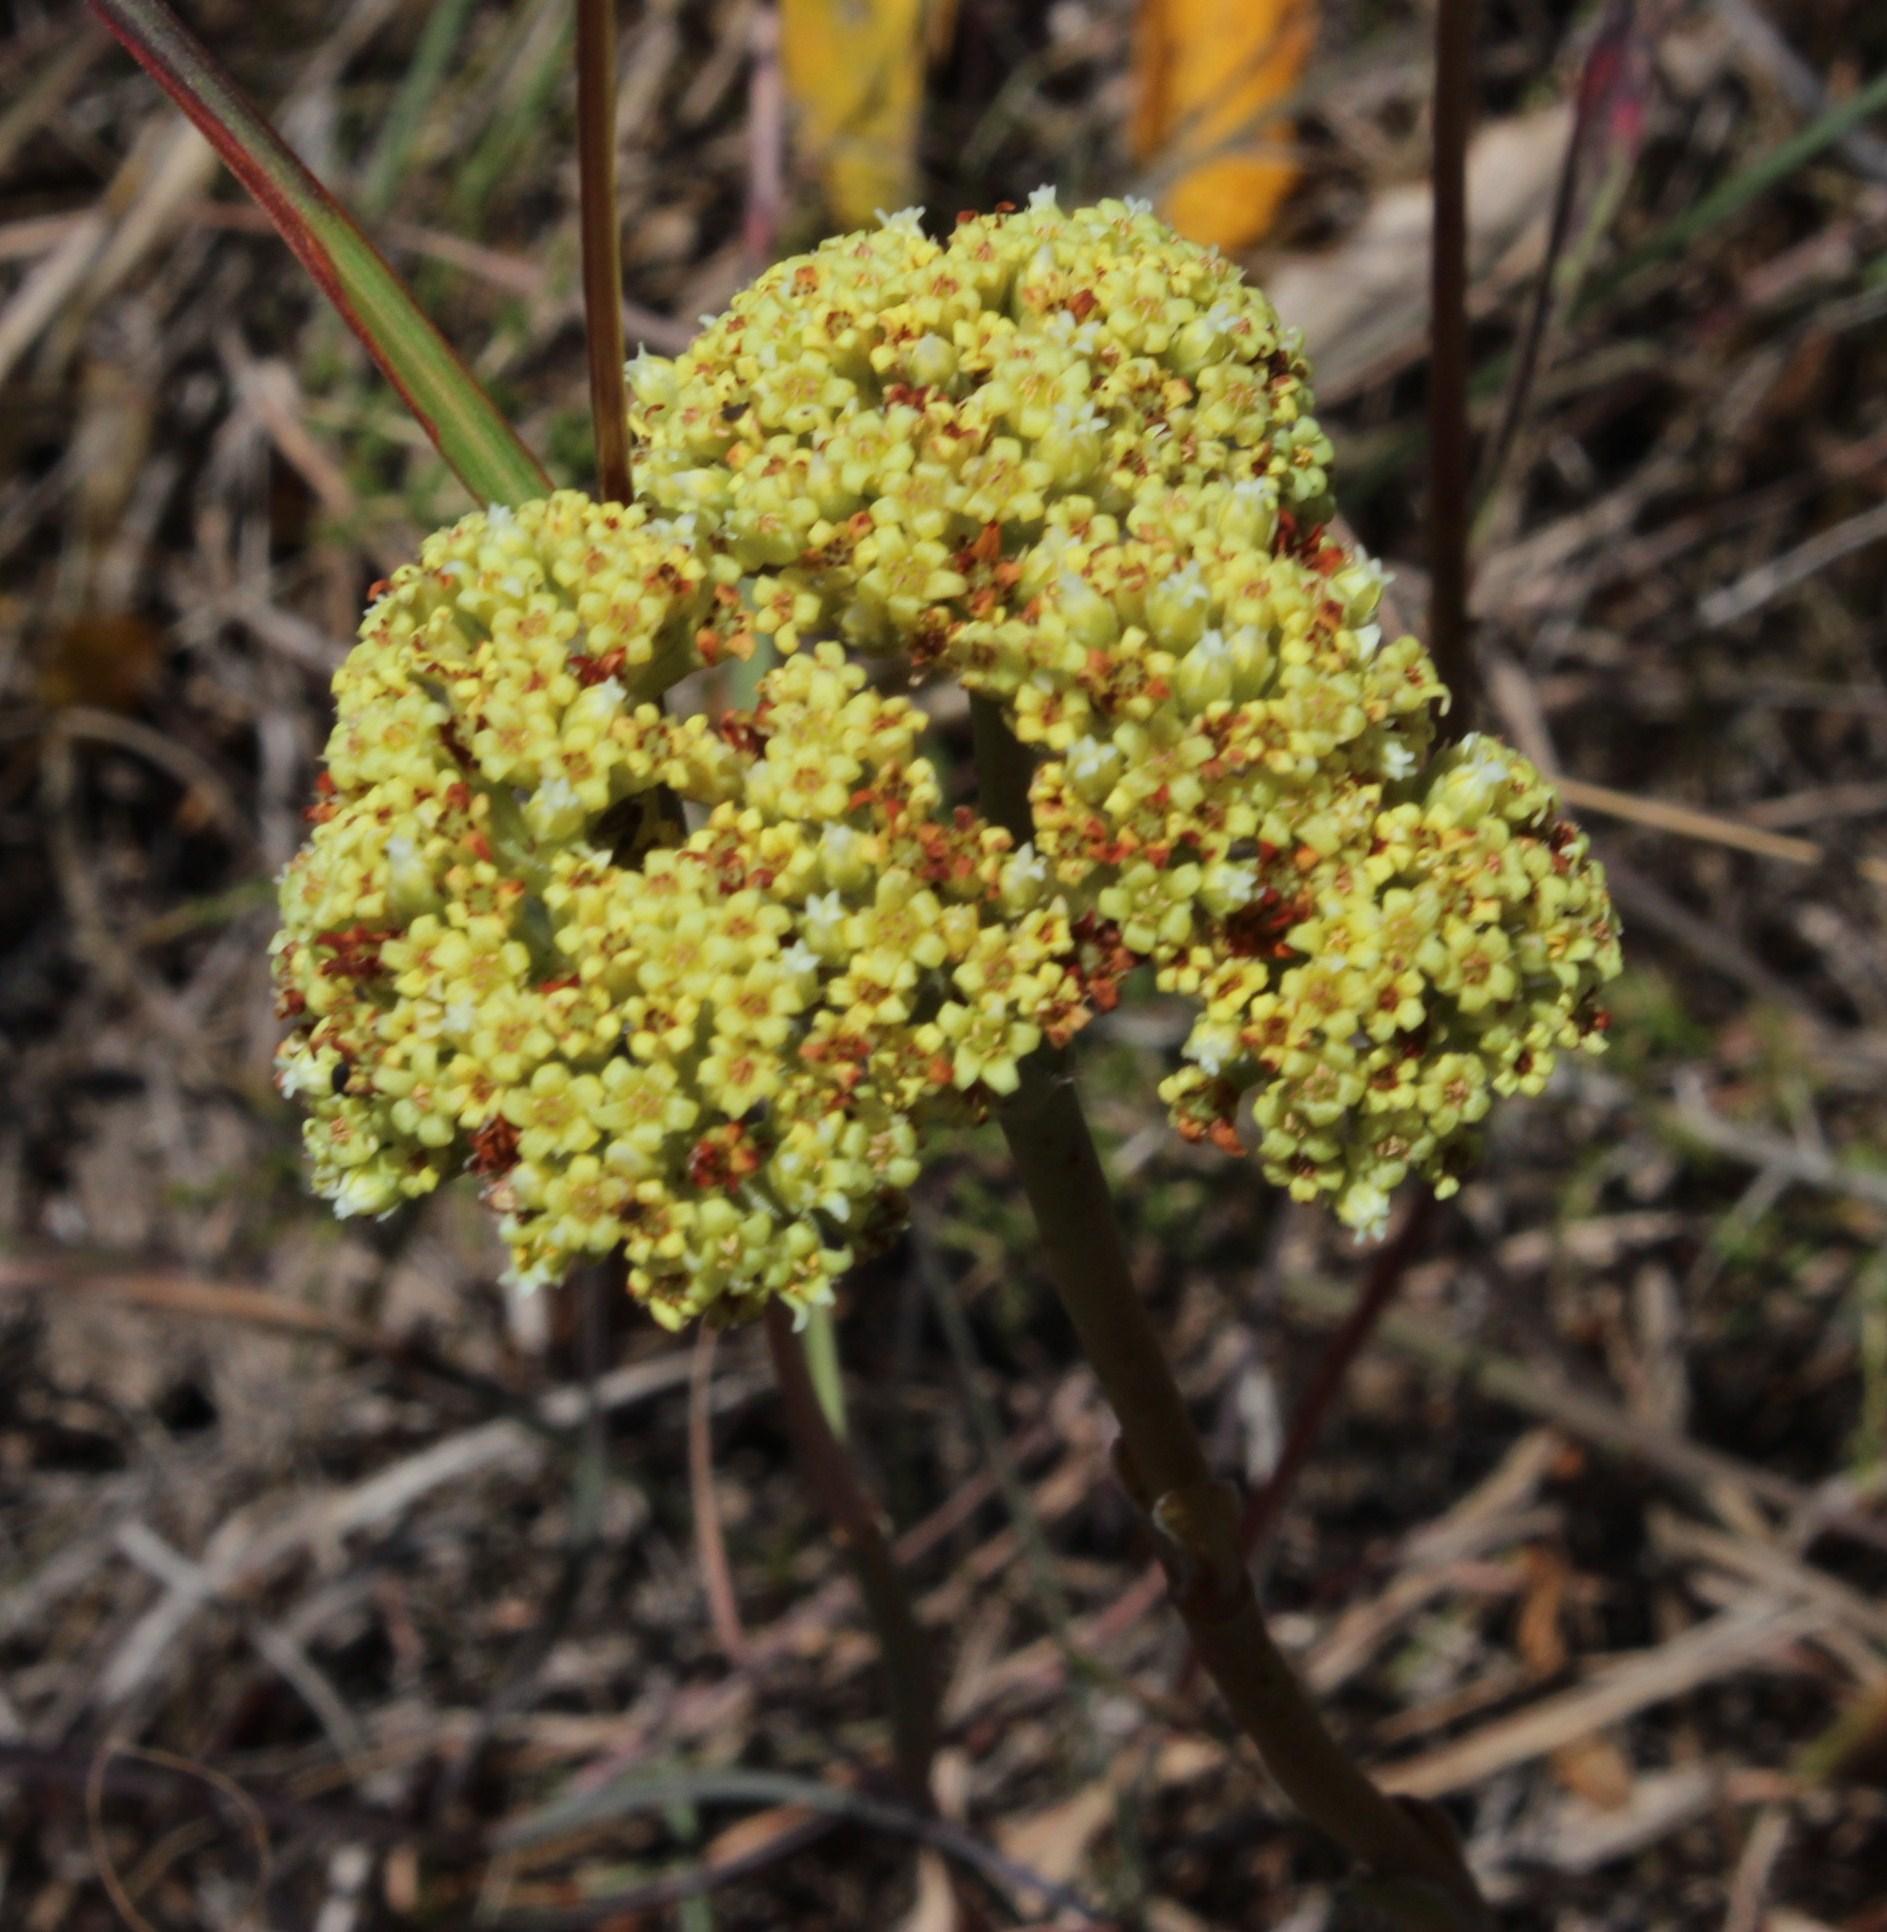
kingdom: Plantae
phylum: Tracheophyta
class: Magnoliopsida
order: Saxifragales
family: Crassulaceae
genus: Crassula
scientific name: Crassula ciliata
